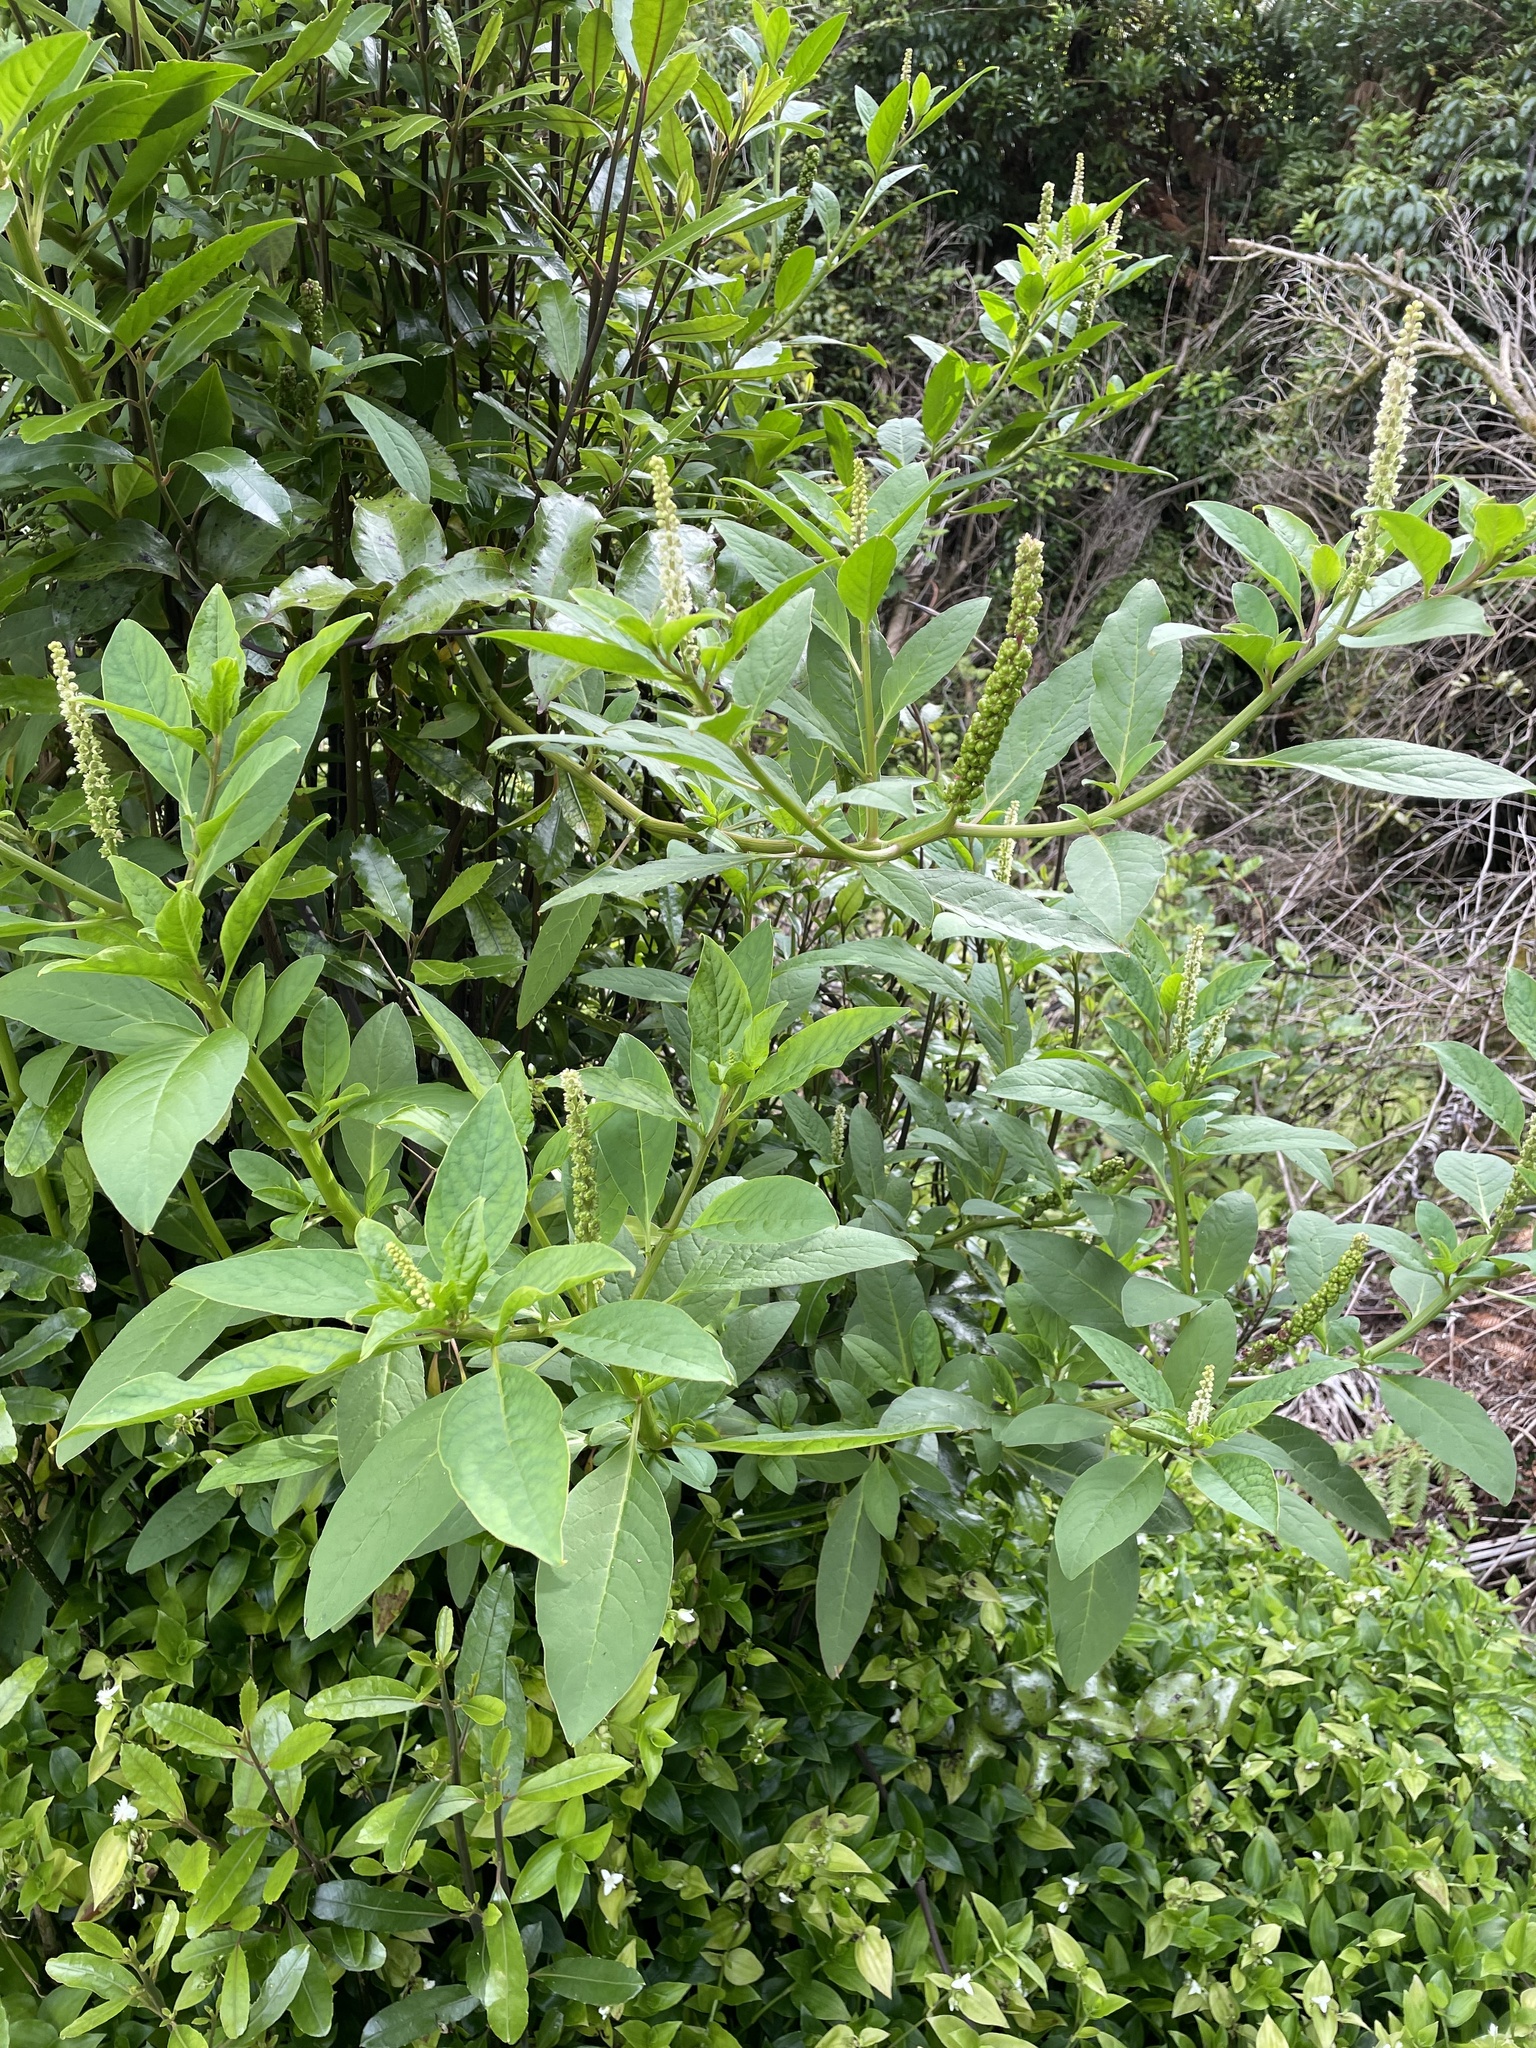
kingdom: Plantae
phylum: Tracheophyta
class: Magnoliopsida
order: Caryophyllales
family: Phytolaccaceae
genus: Phytolacca
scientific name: Phytolacca icosandra
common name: Button pokeweed
